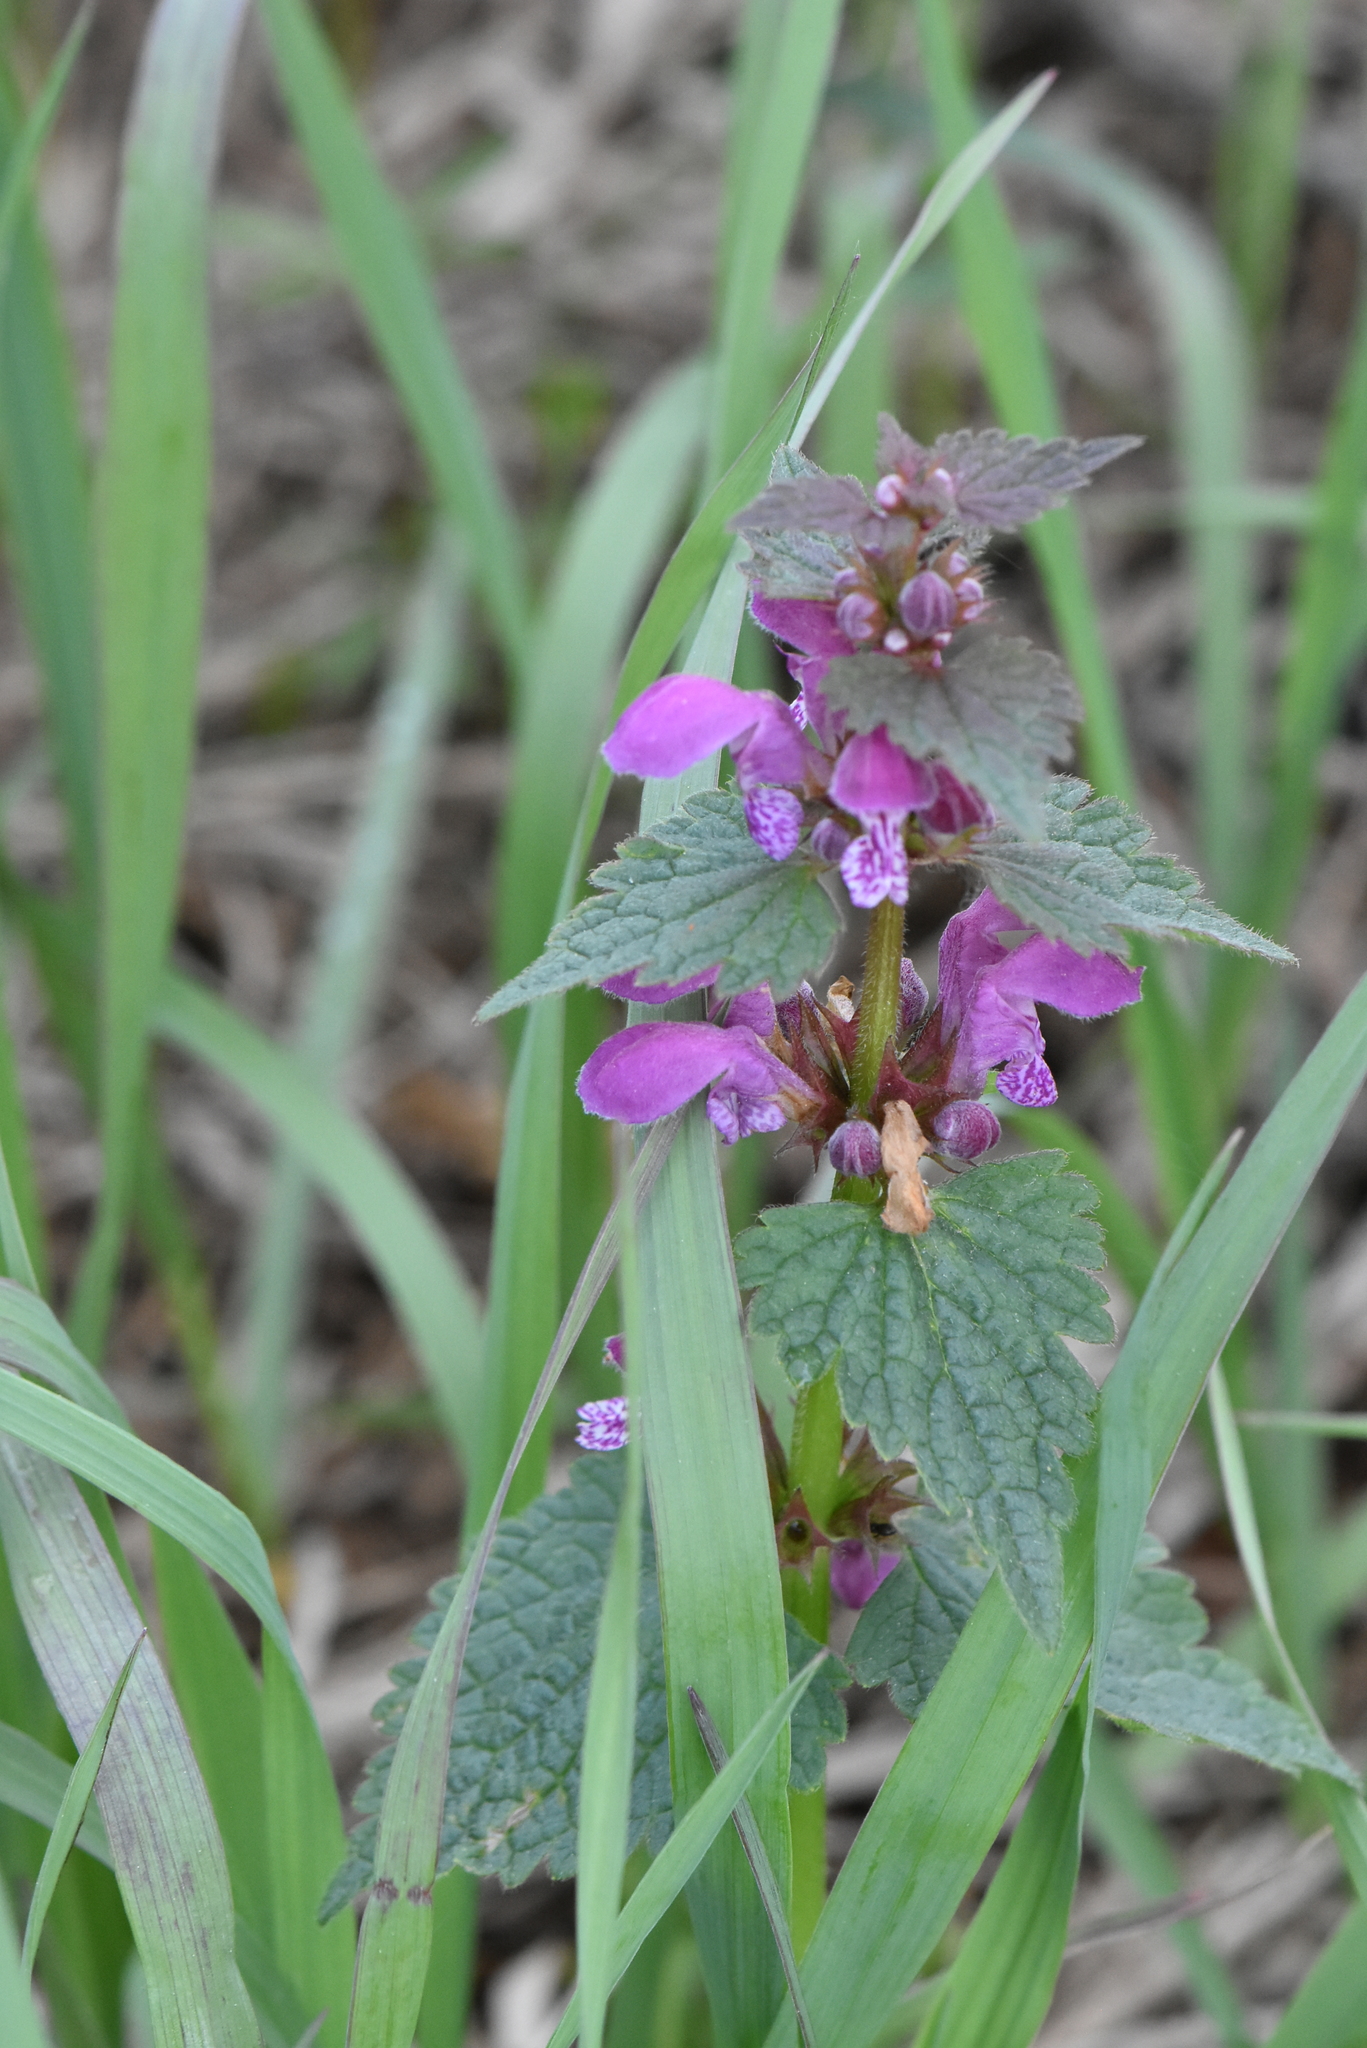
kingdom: Plantae
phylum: Tracheophyta
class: Magnoliopsida
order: Lamiales
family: Lamiaceae
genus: Lamium
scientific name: Lamium maculatum
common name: Spotted dead-nettle
